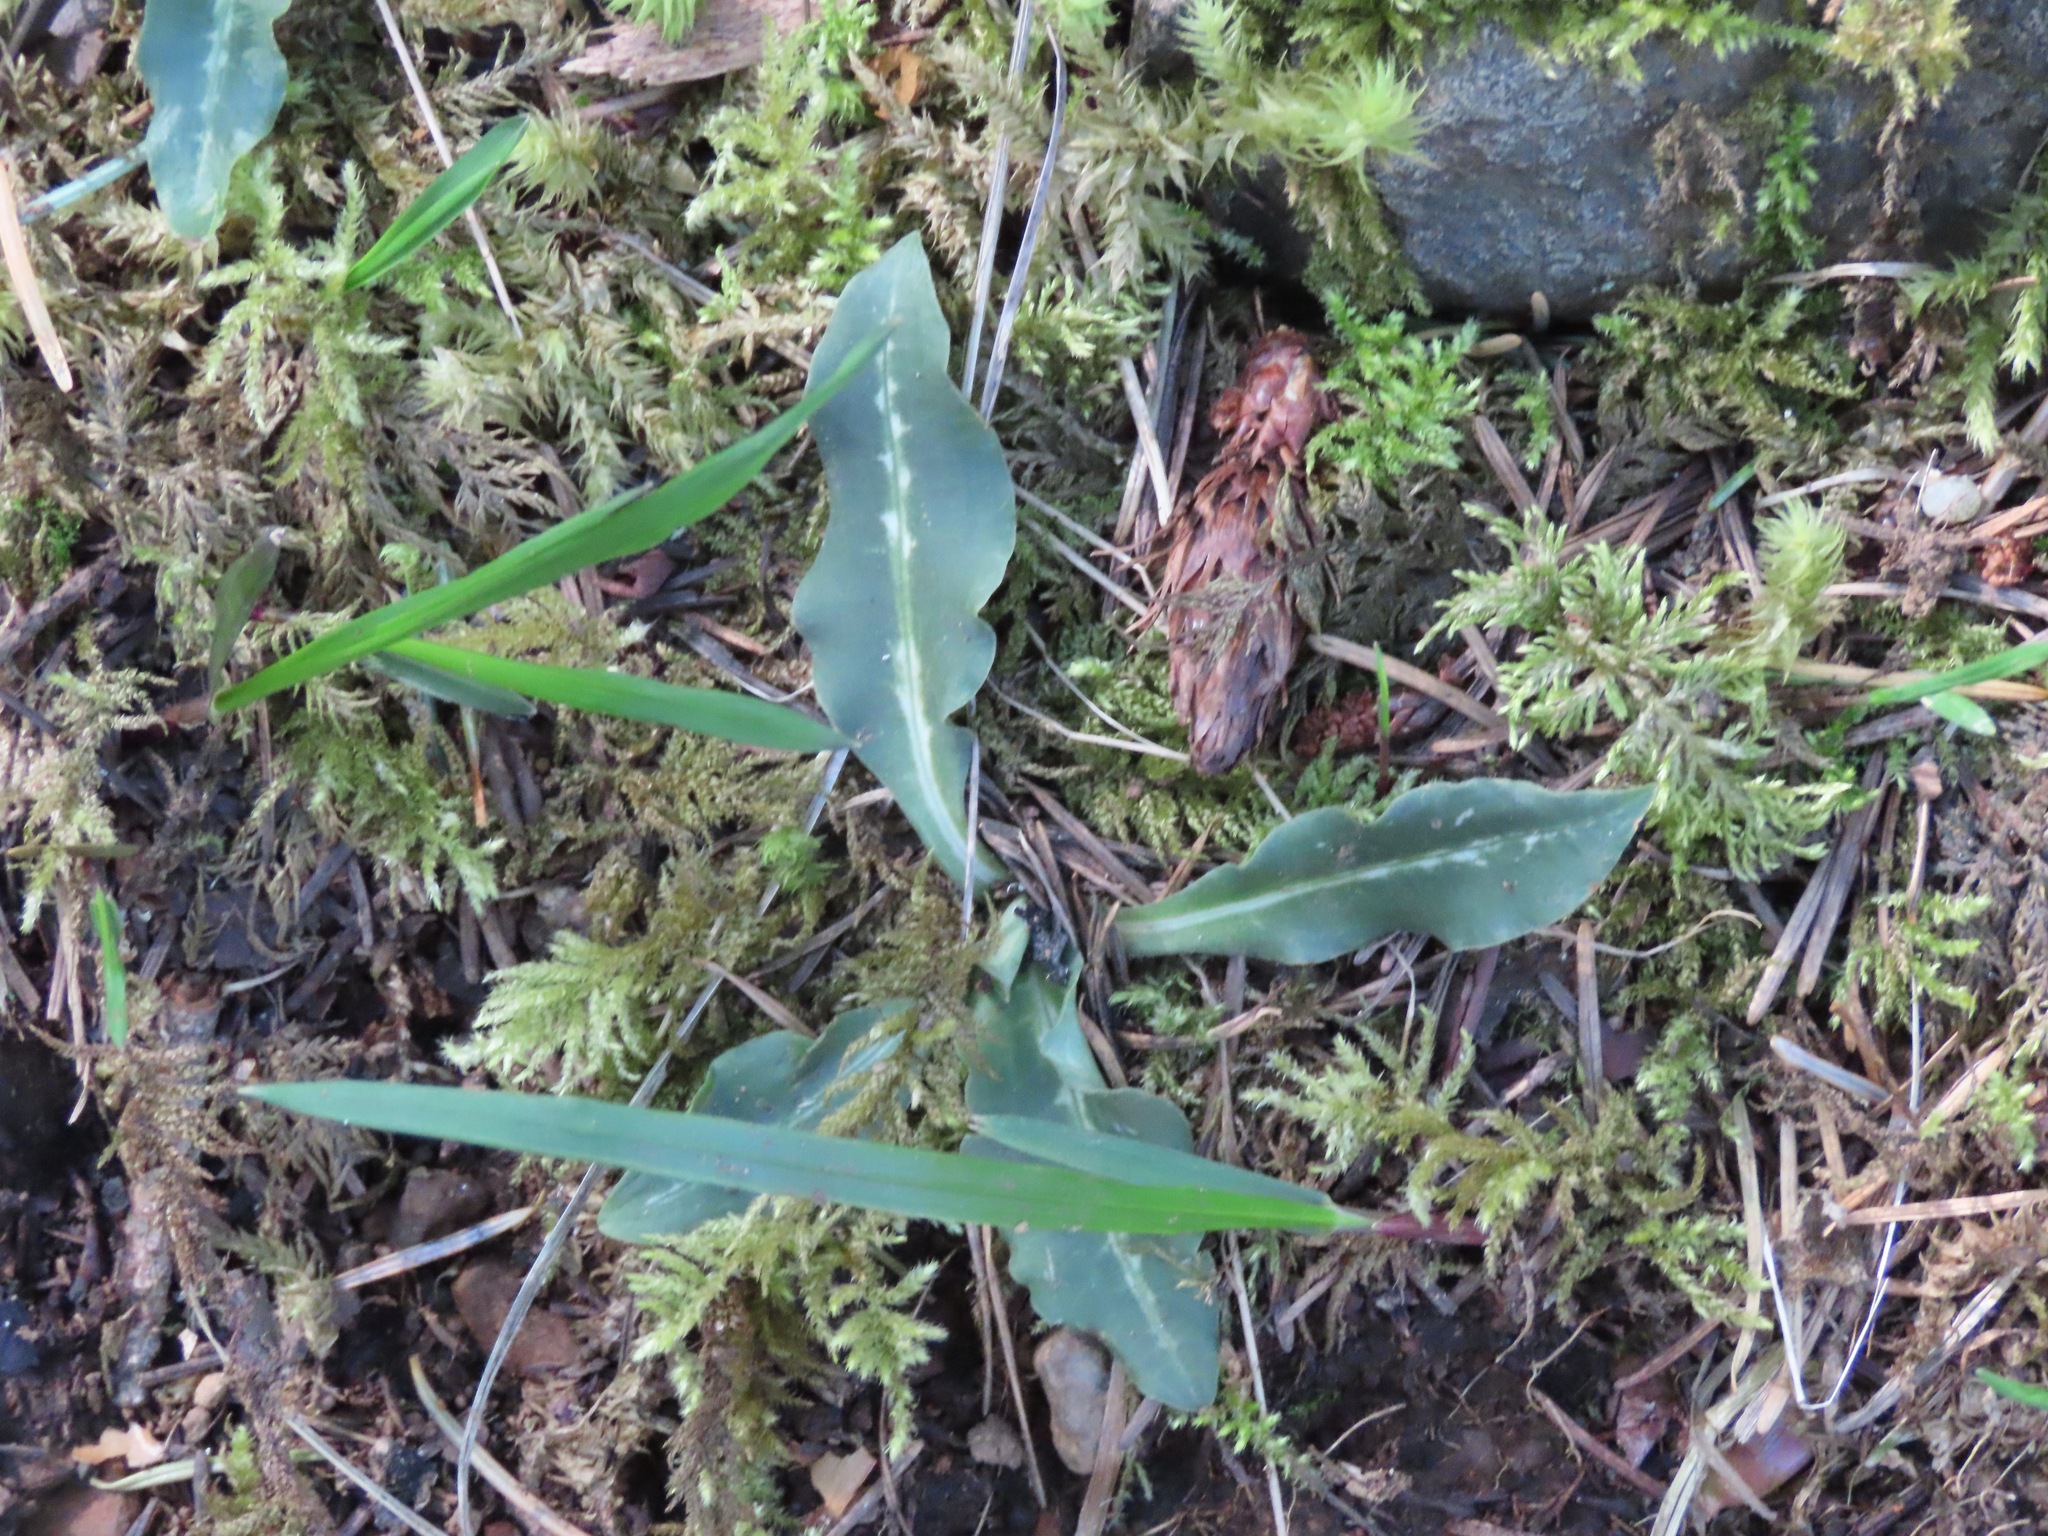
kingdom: Plantae
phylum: Tracheophyta
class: Liliopsida
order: Asparagales
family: Orchidaceae
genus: Goodyera
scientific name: Goodyera oblongifolia
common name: Giant rattlesnake-plantain
